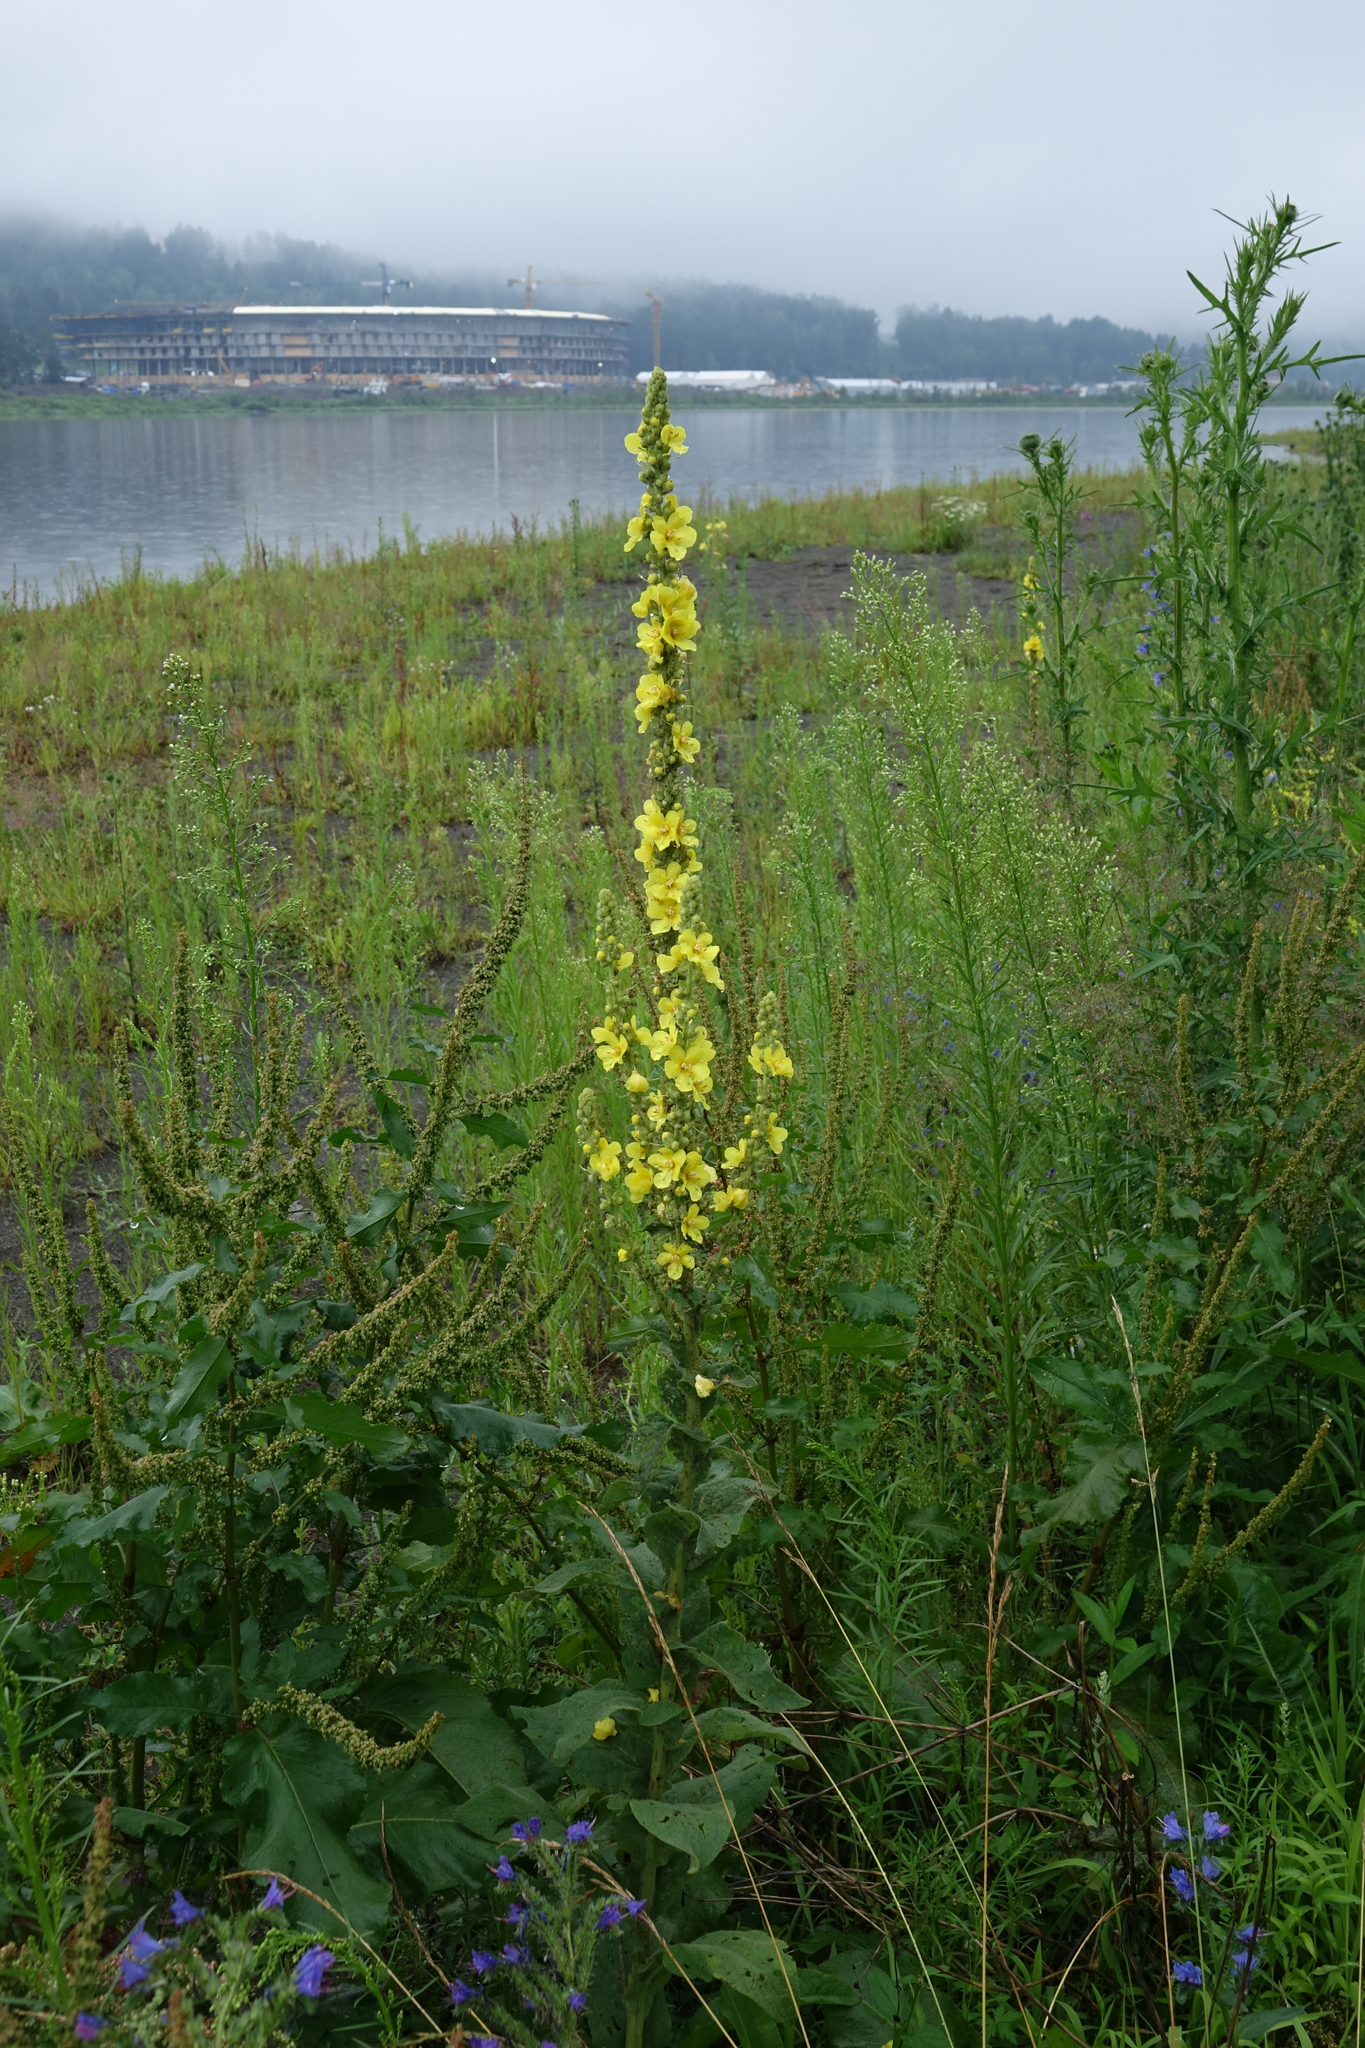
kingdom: Plantae
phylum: Tracheophyta
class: Magnoliopsida
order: Lamiales
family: Scrophulariaceae
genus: Verbascum
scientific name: Verbascum phlomoides
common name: Orange mullein
